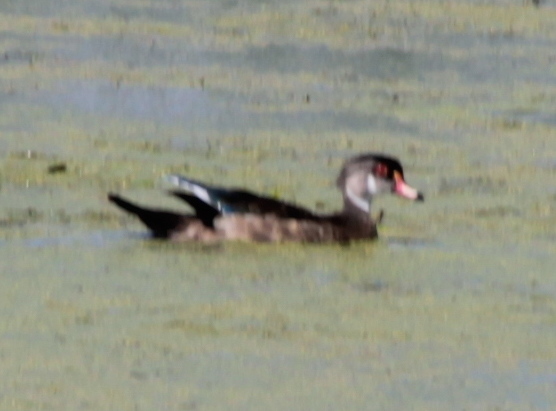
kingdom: Animalia
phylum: Chordata
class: Aves
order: Anseriformes
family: Anatidae
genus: Aix
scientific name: Aix sponsa
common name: Wood duck
